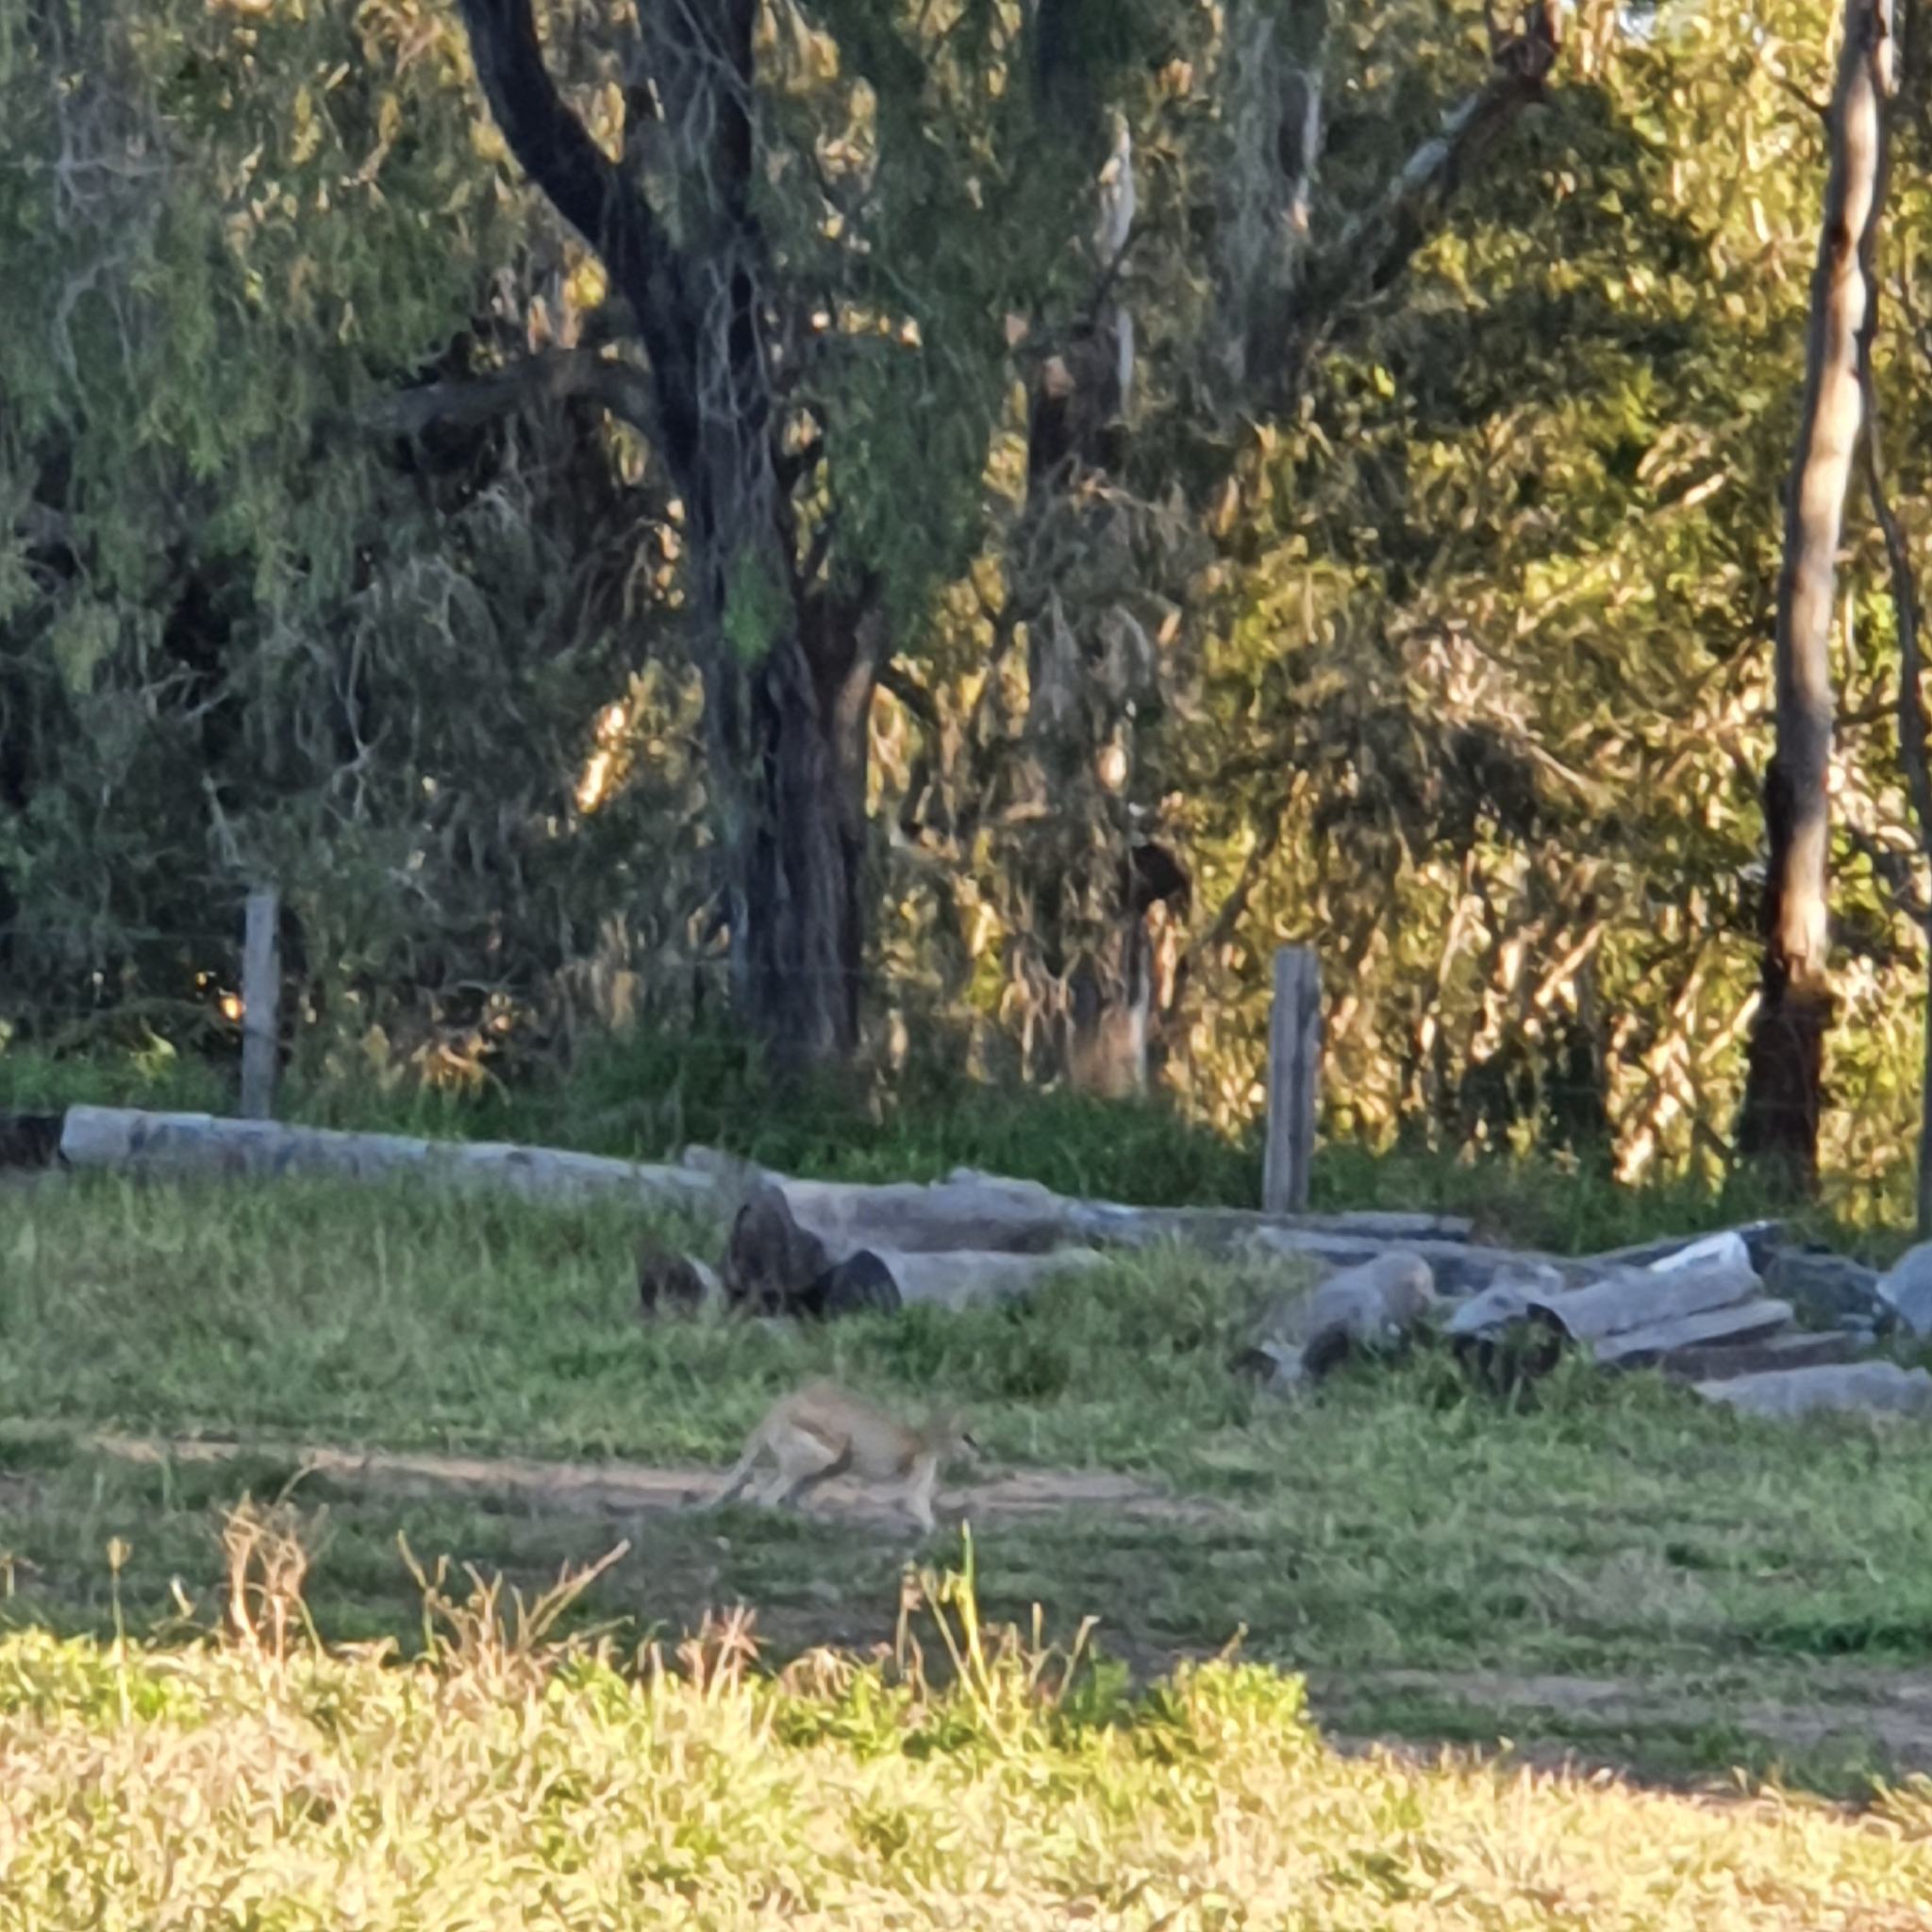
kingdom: Animalia
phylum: Chordata
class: Mammalia
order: Diprotodontia
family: Macropodidae
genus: Macropus
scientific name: Macropus agilis
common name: Agile wallaby
